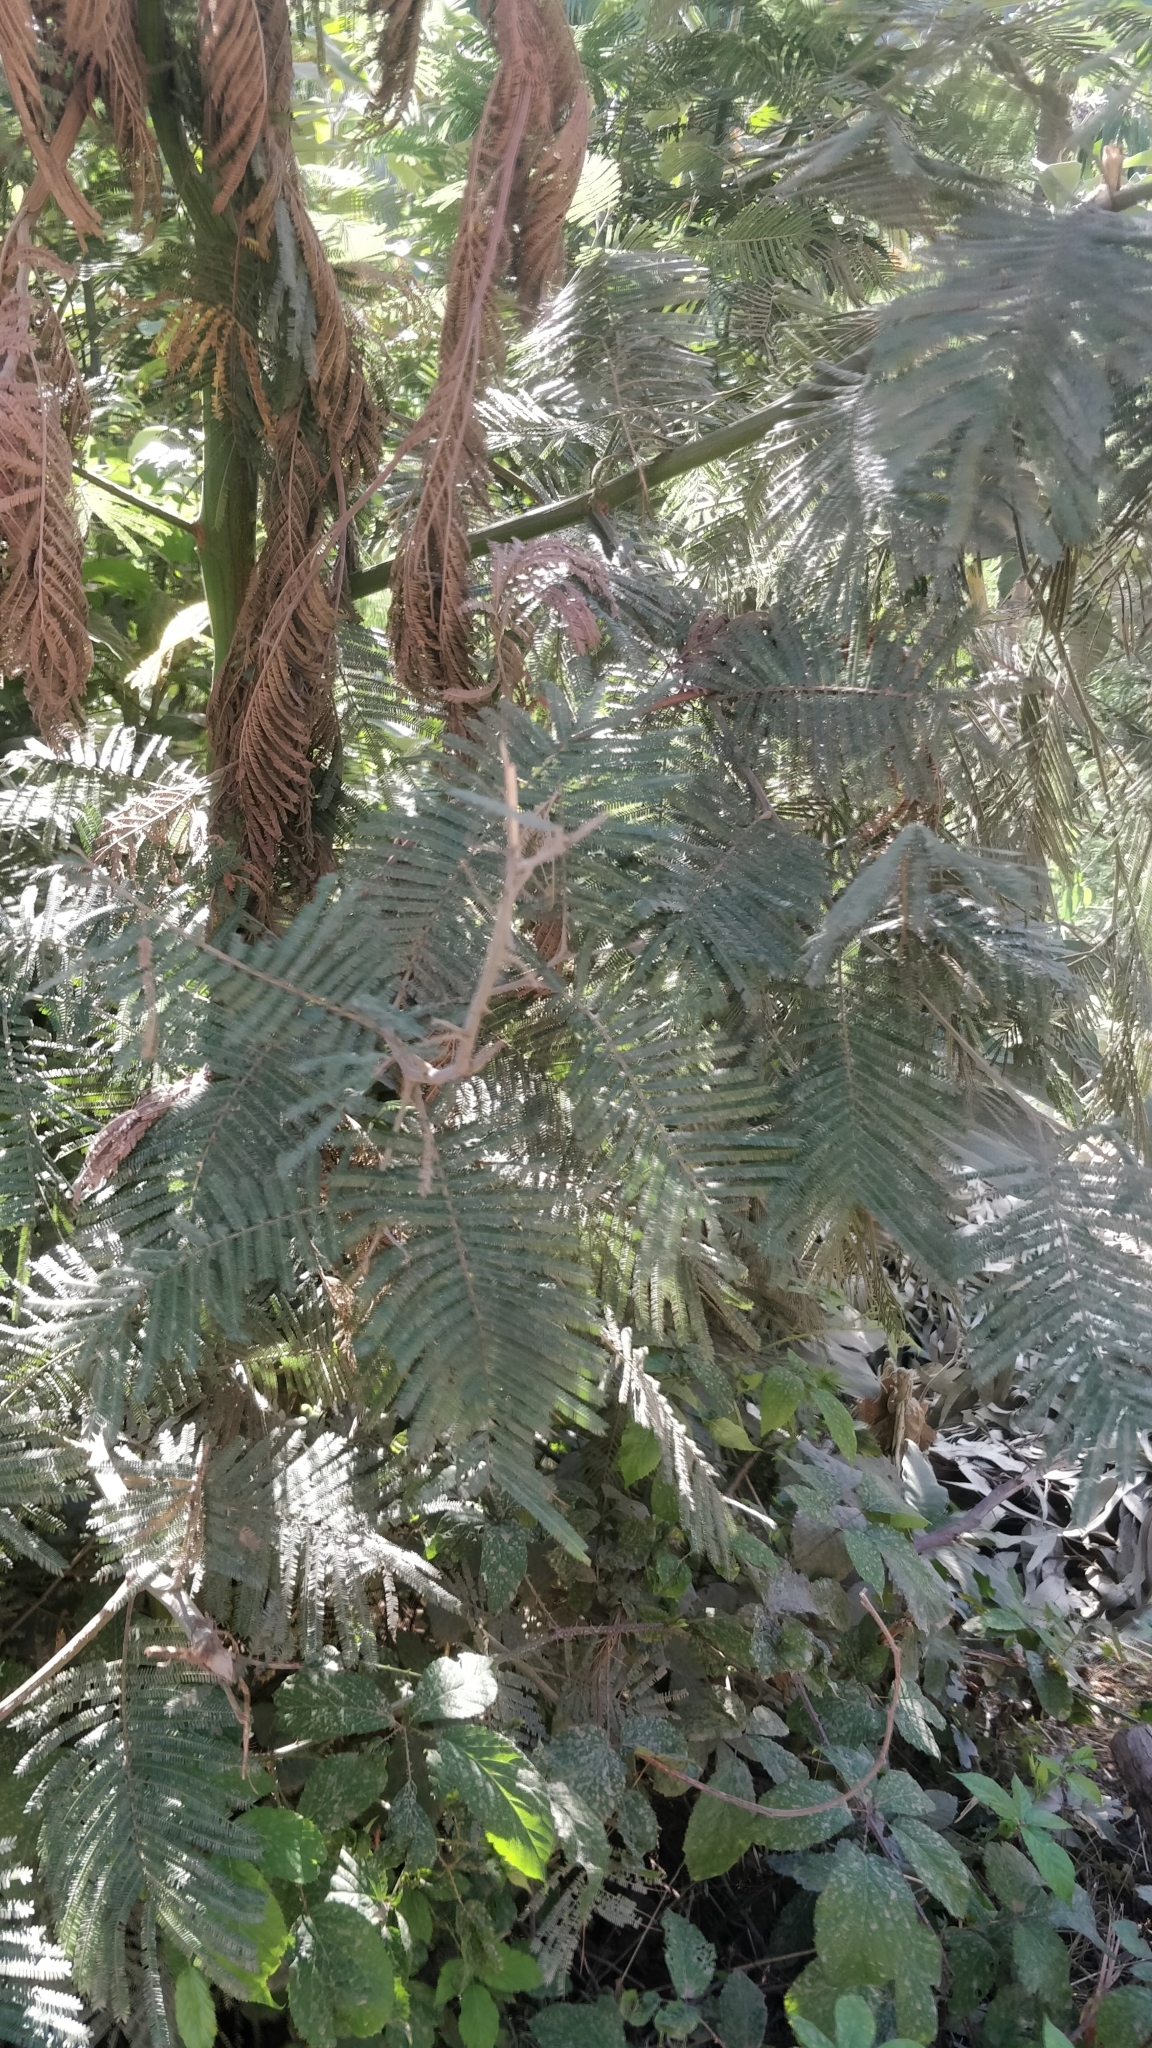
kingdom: Plantae
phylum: Tracheophyta
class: Magnoliopsida
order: Fabales
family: Fabaceae
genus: Acacia
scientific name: Acacia mearnsii
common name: Black wattle
